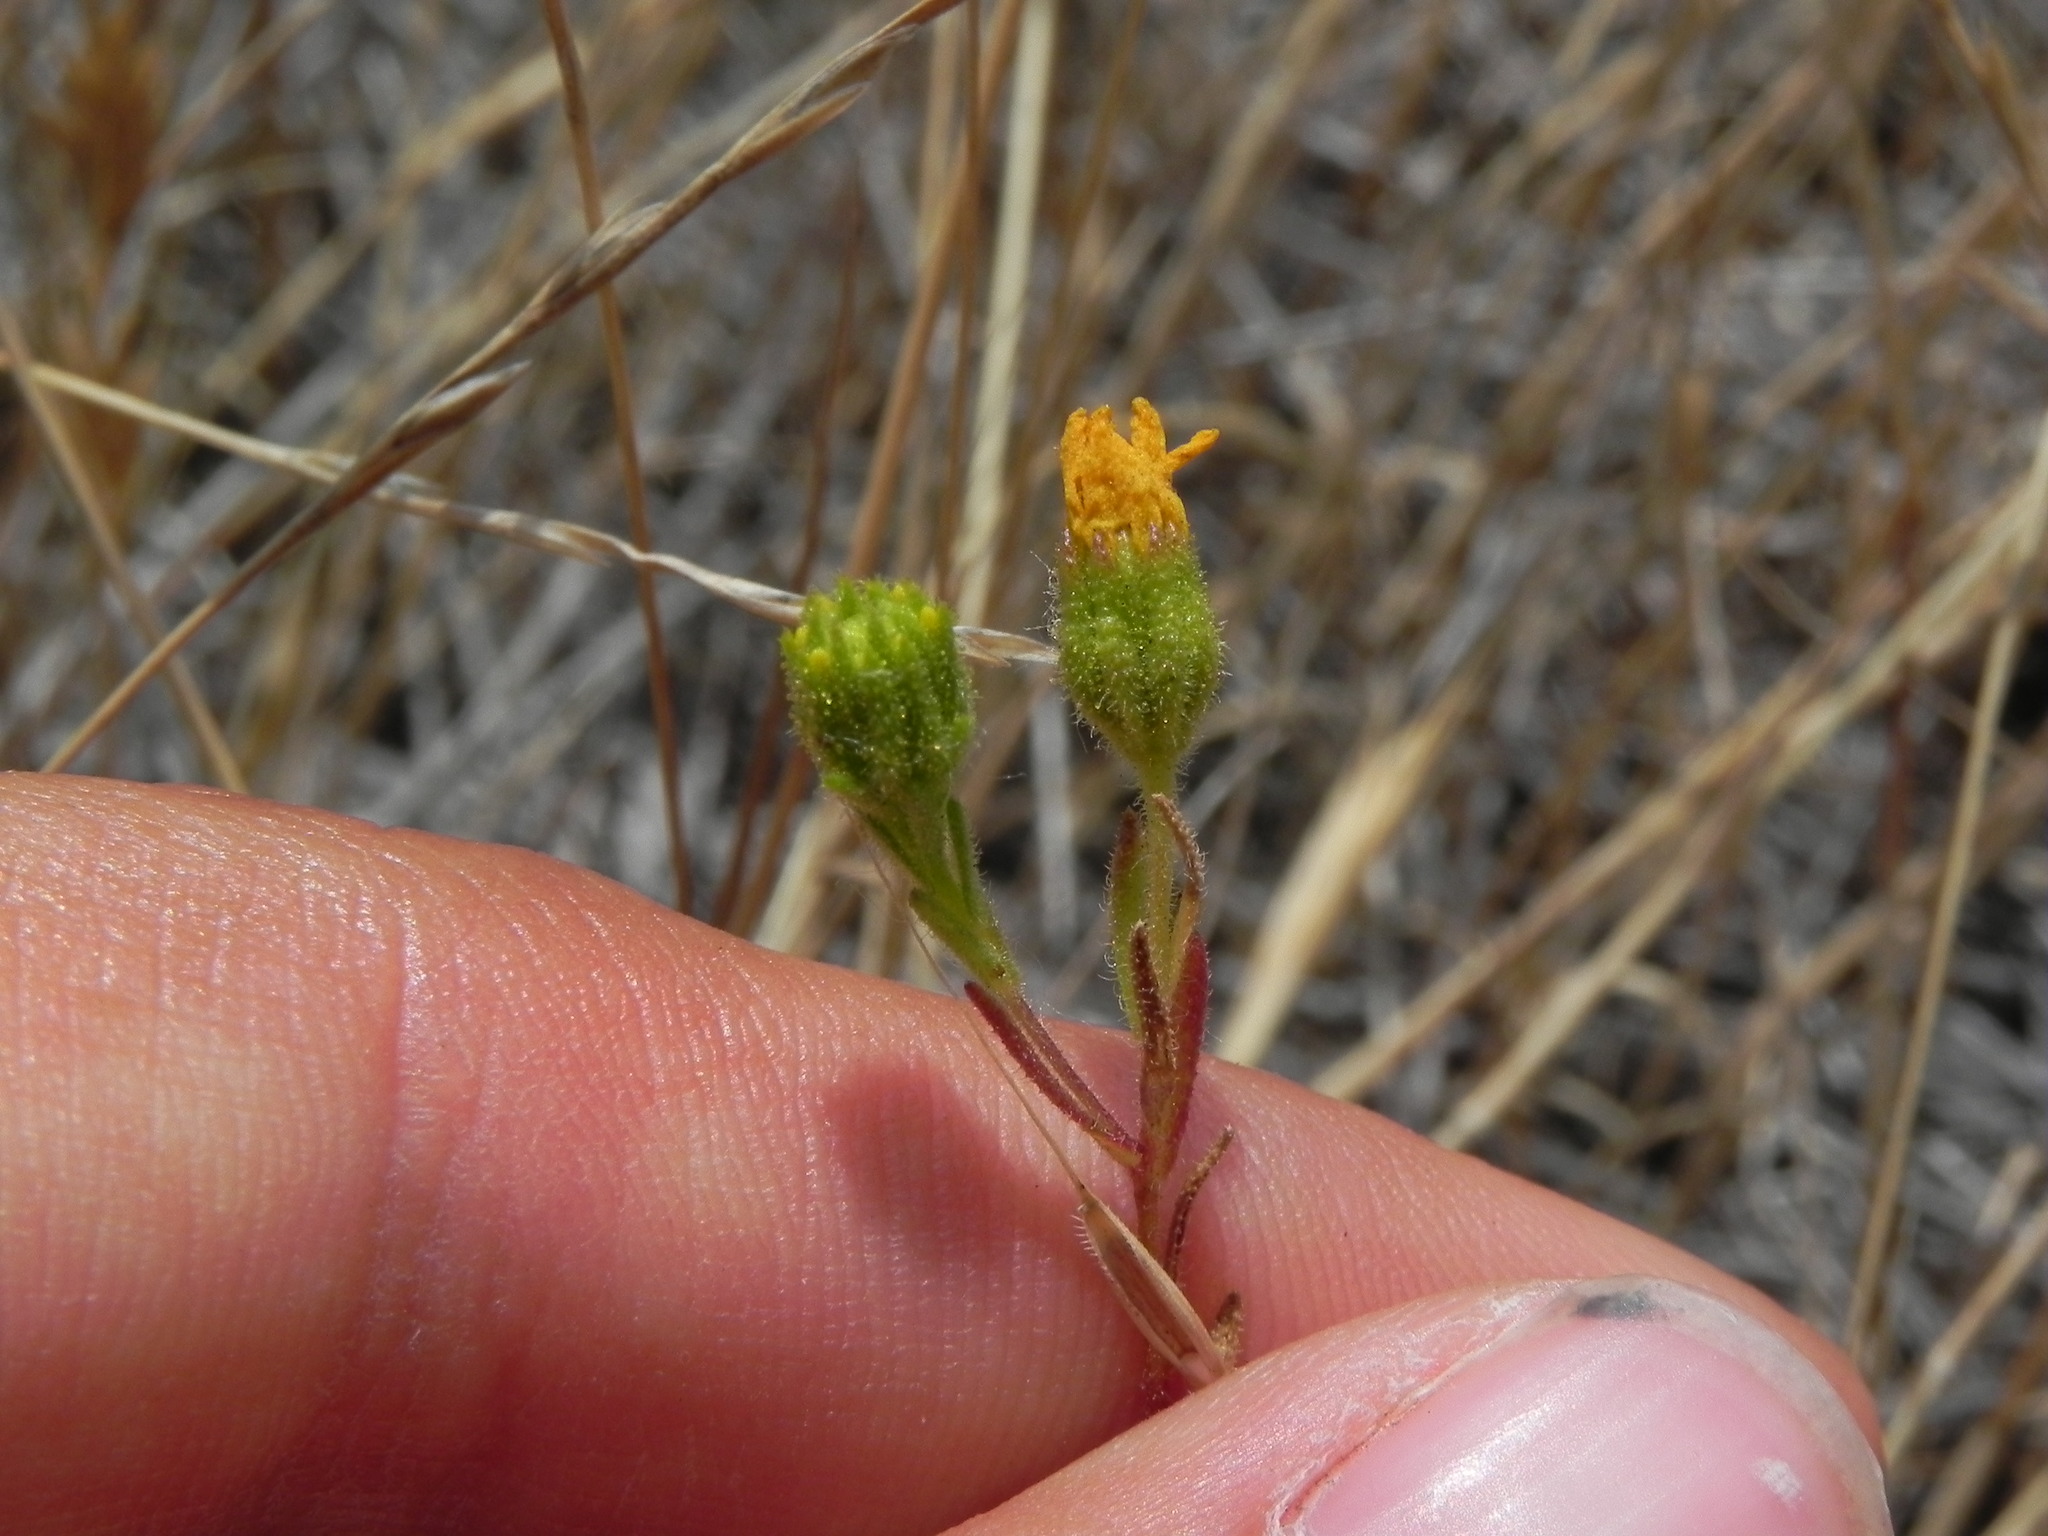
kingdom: Plantae
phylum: Tracheophyta
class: Magnoliopsida
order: Asterales
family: Asteraceae
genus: Deinandra
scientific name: Deinandra conjugens
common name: Otay tarplant
